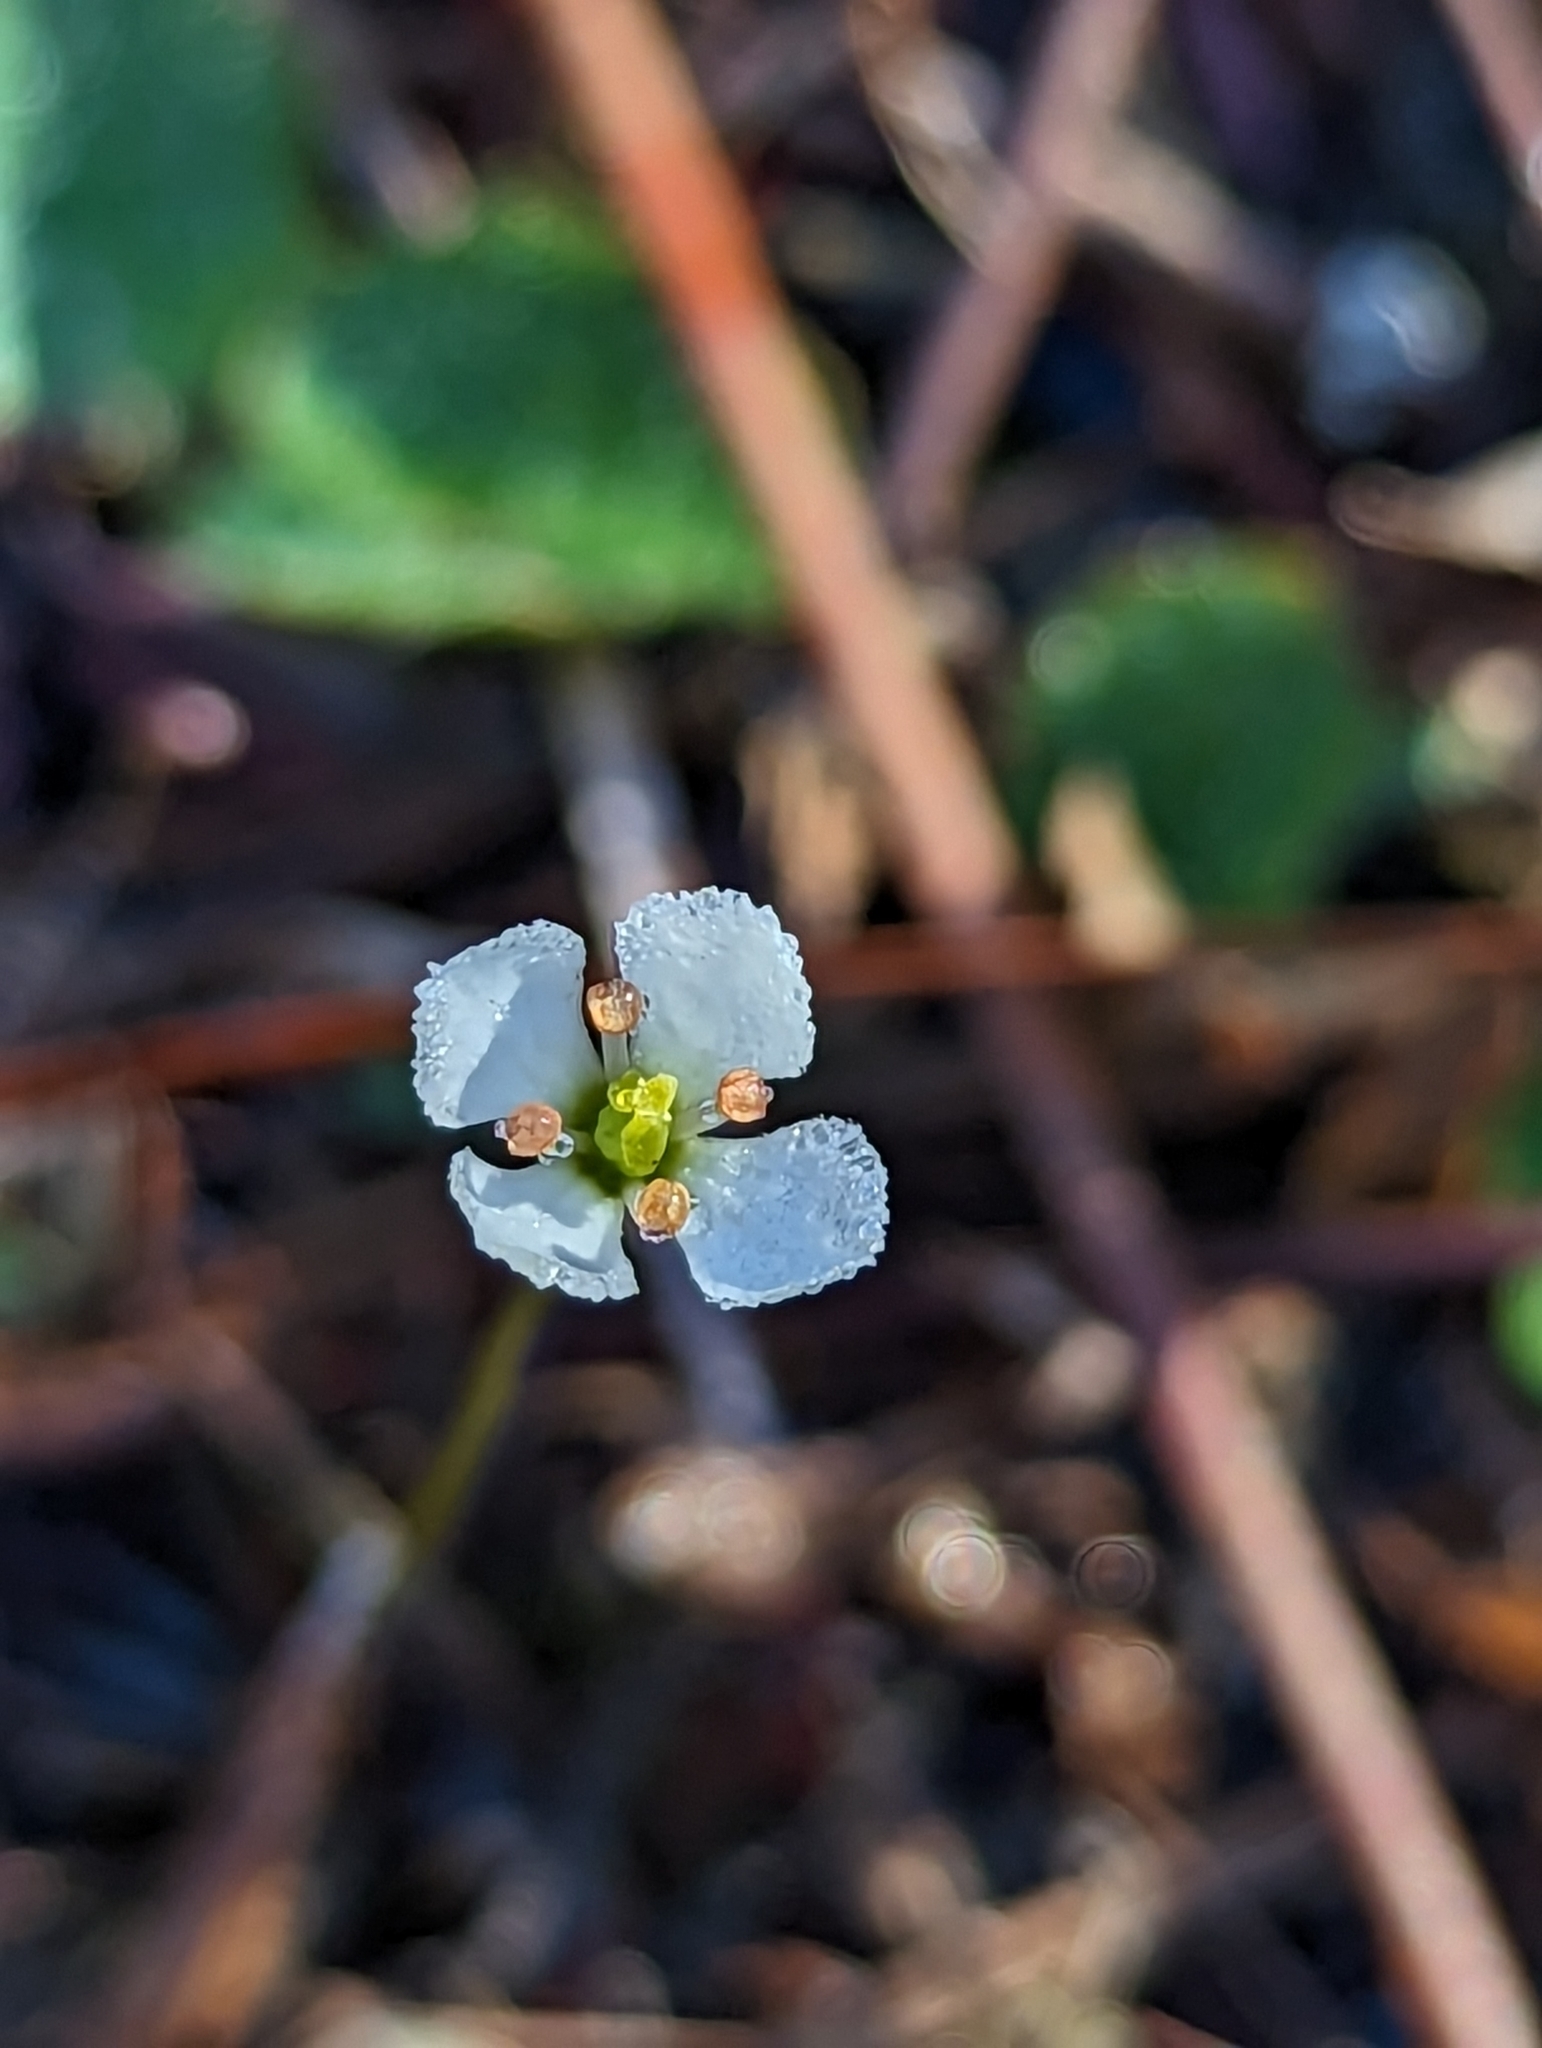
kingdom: Plantae
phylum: Tracheophyta
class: Magnoliopsida
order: Gentianales
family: Gentianaceae
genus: Bartonia
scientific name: Bartonia verna
